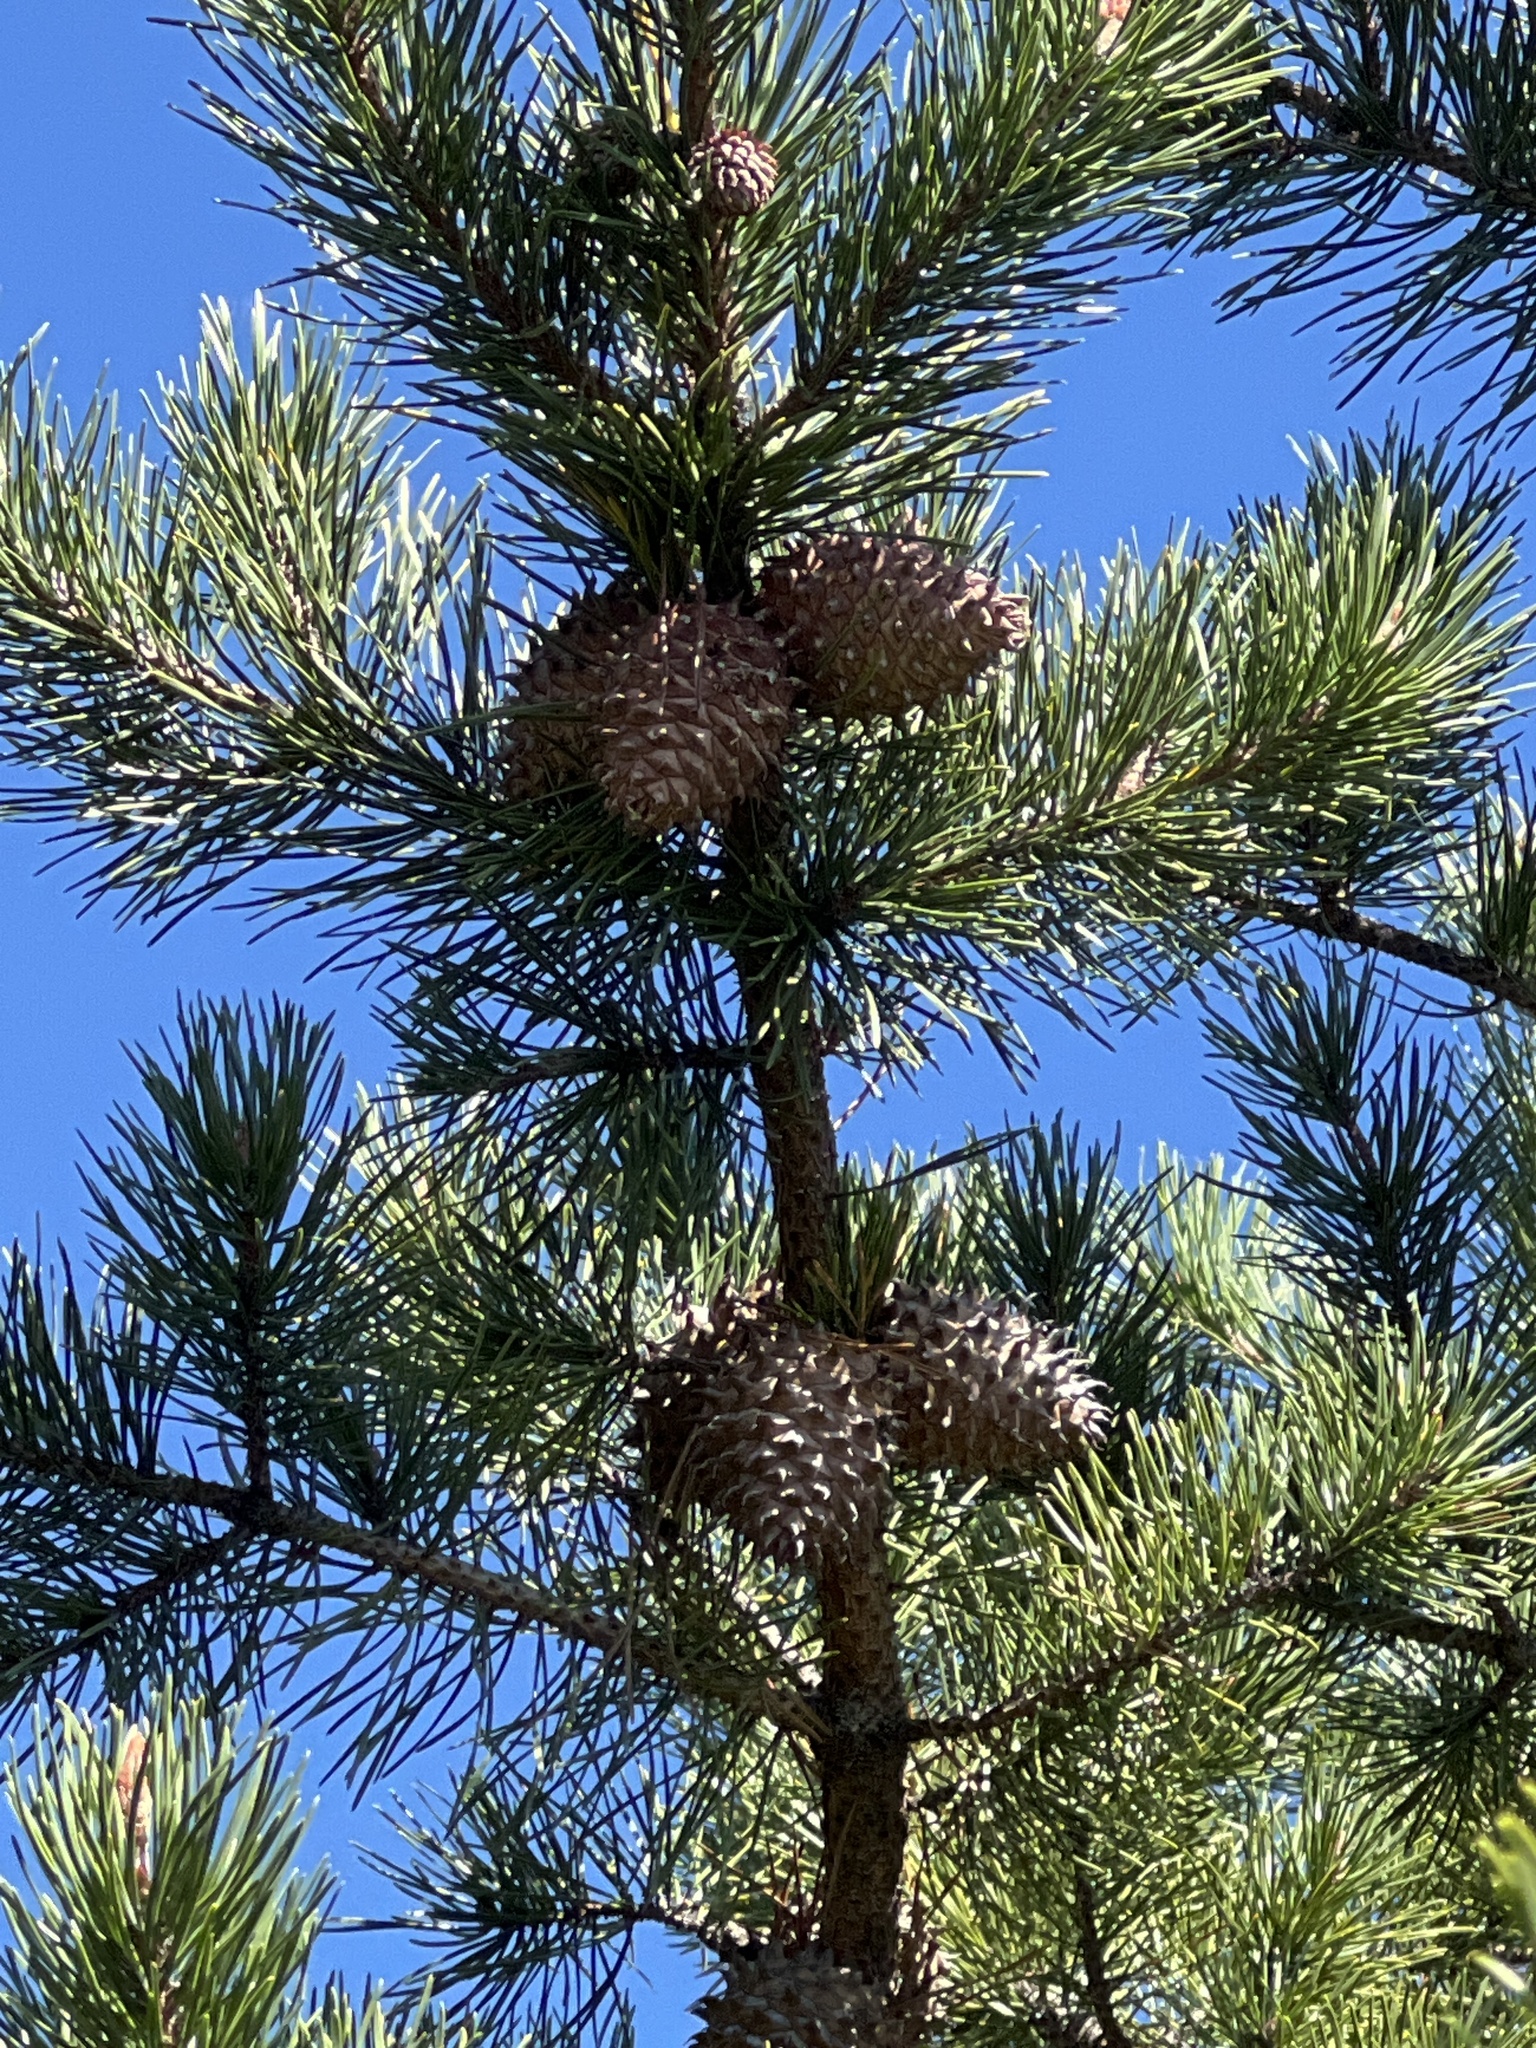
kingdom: Plantae
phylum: Tracheophyta
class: Pinopsida
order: Pinales
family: Pinaceae
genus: Pinus
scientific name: Pinus pungens
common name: Hickory pine
